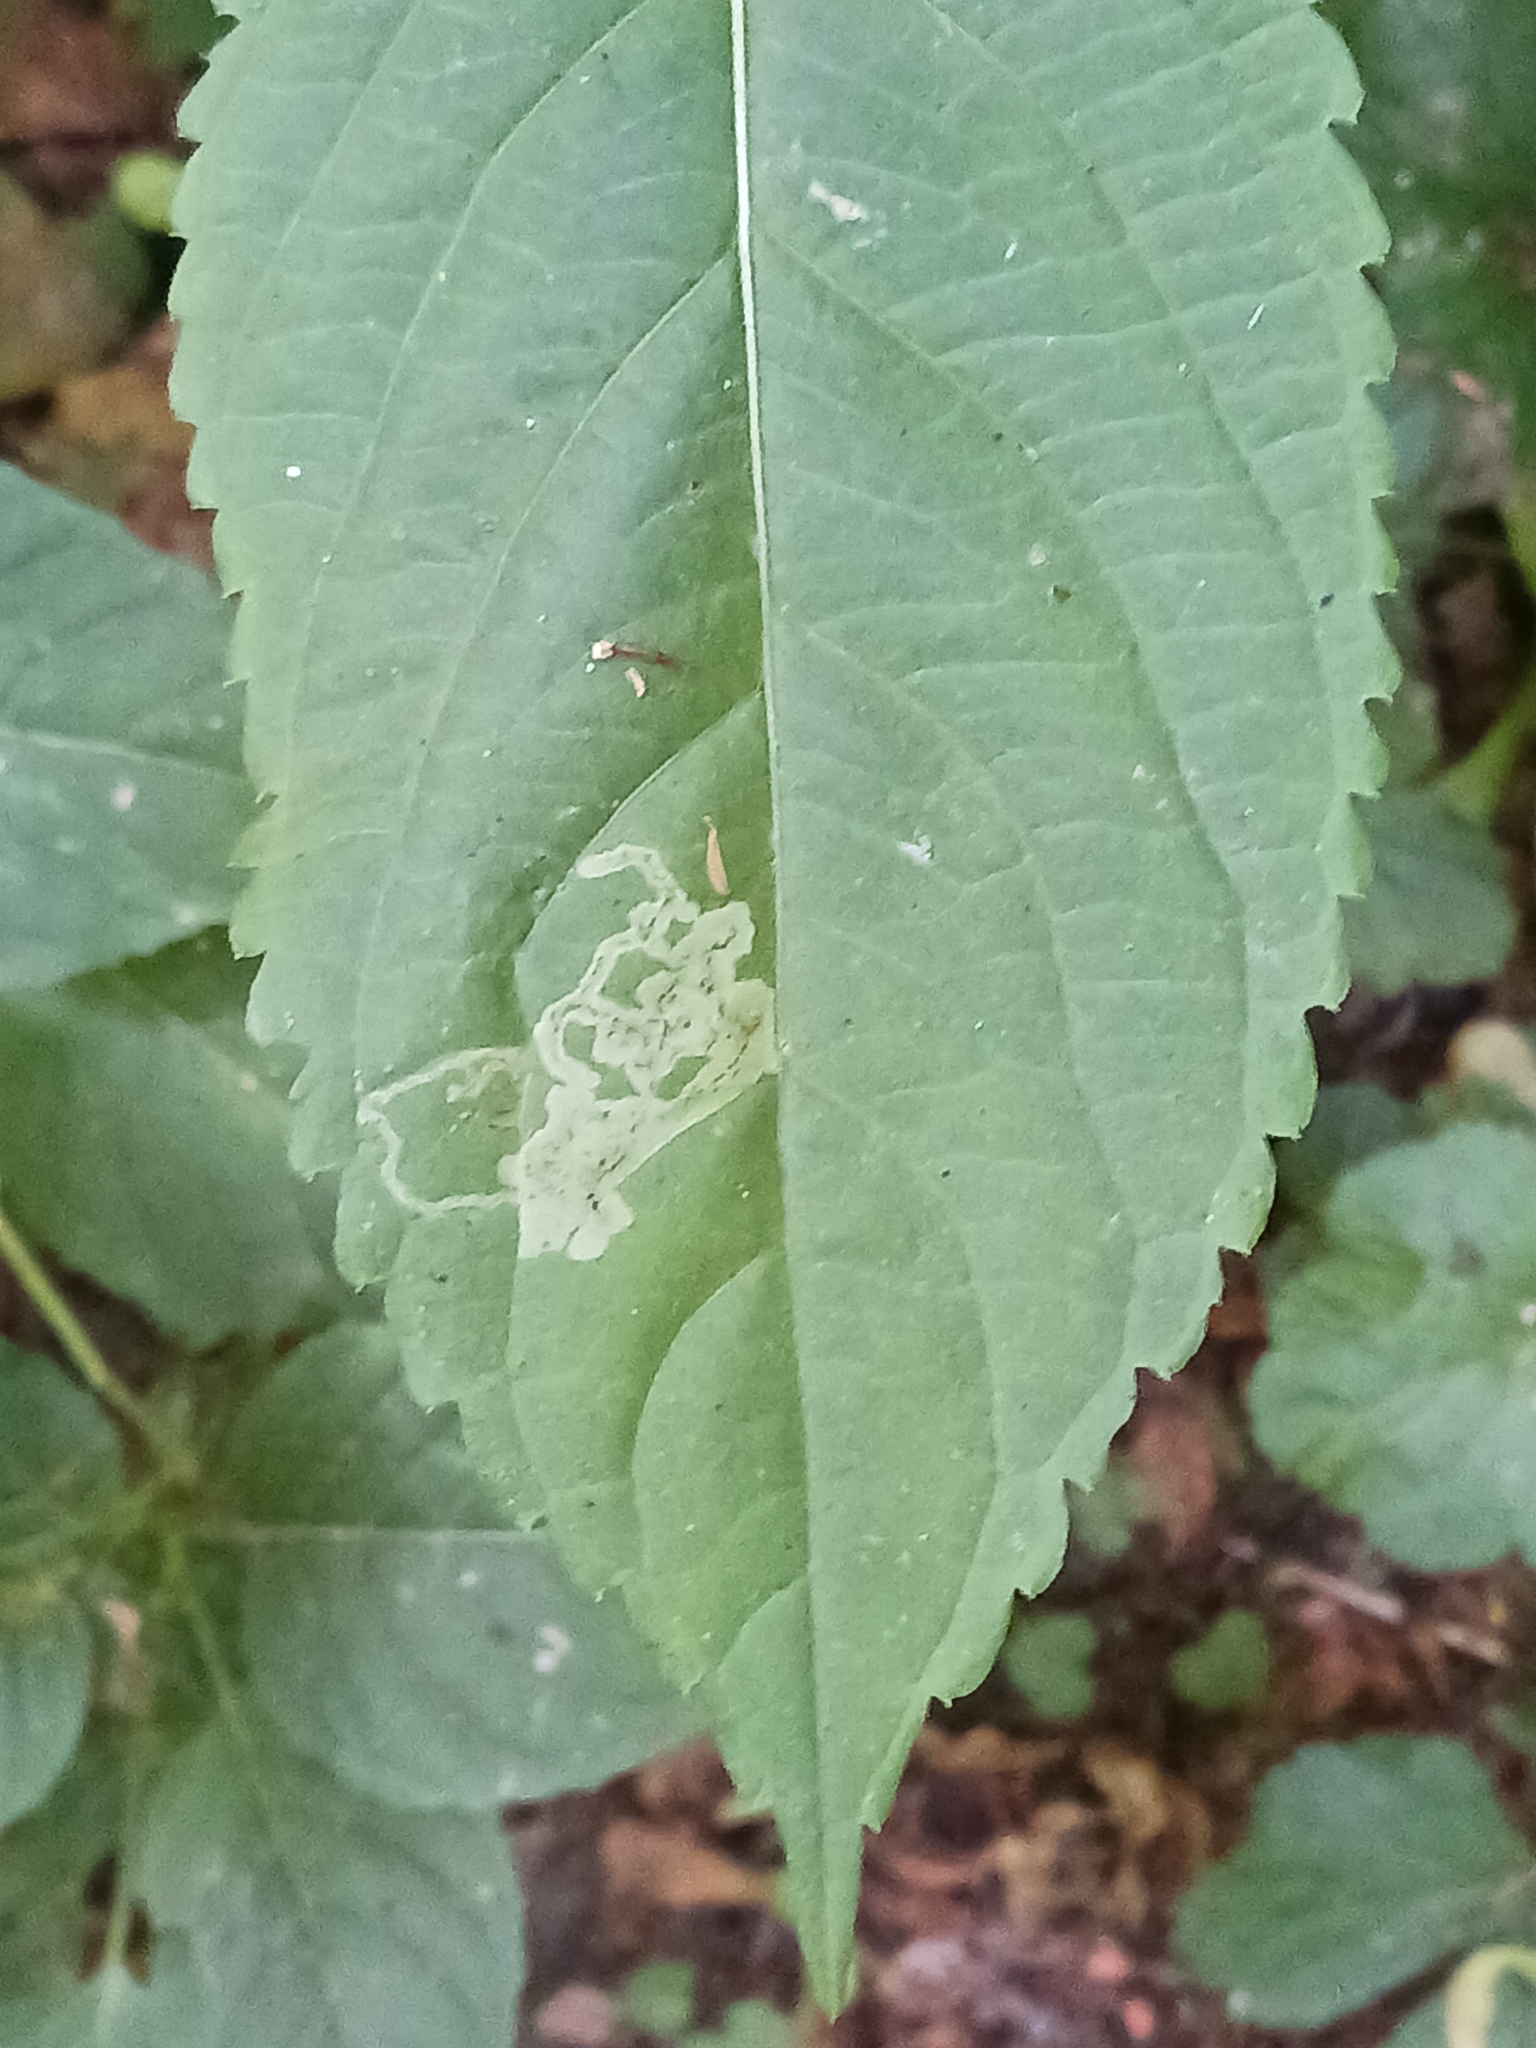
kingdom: Animalia
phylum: Arthropoda
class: Insecta
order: Diptera
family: Agromyzidae
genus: Phytoliriomyza
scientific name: Phytoliriomyza melampyga
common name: Jewelweed leaf-miner fly
